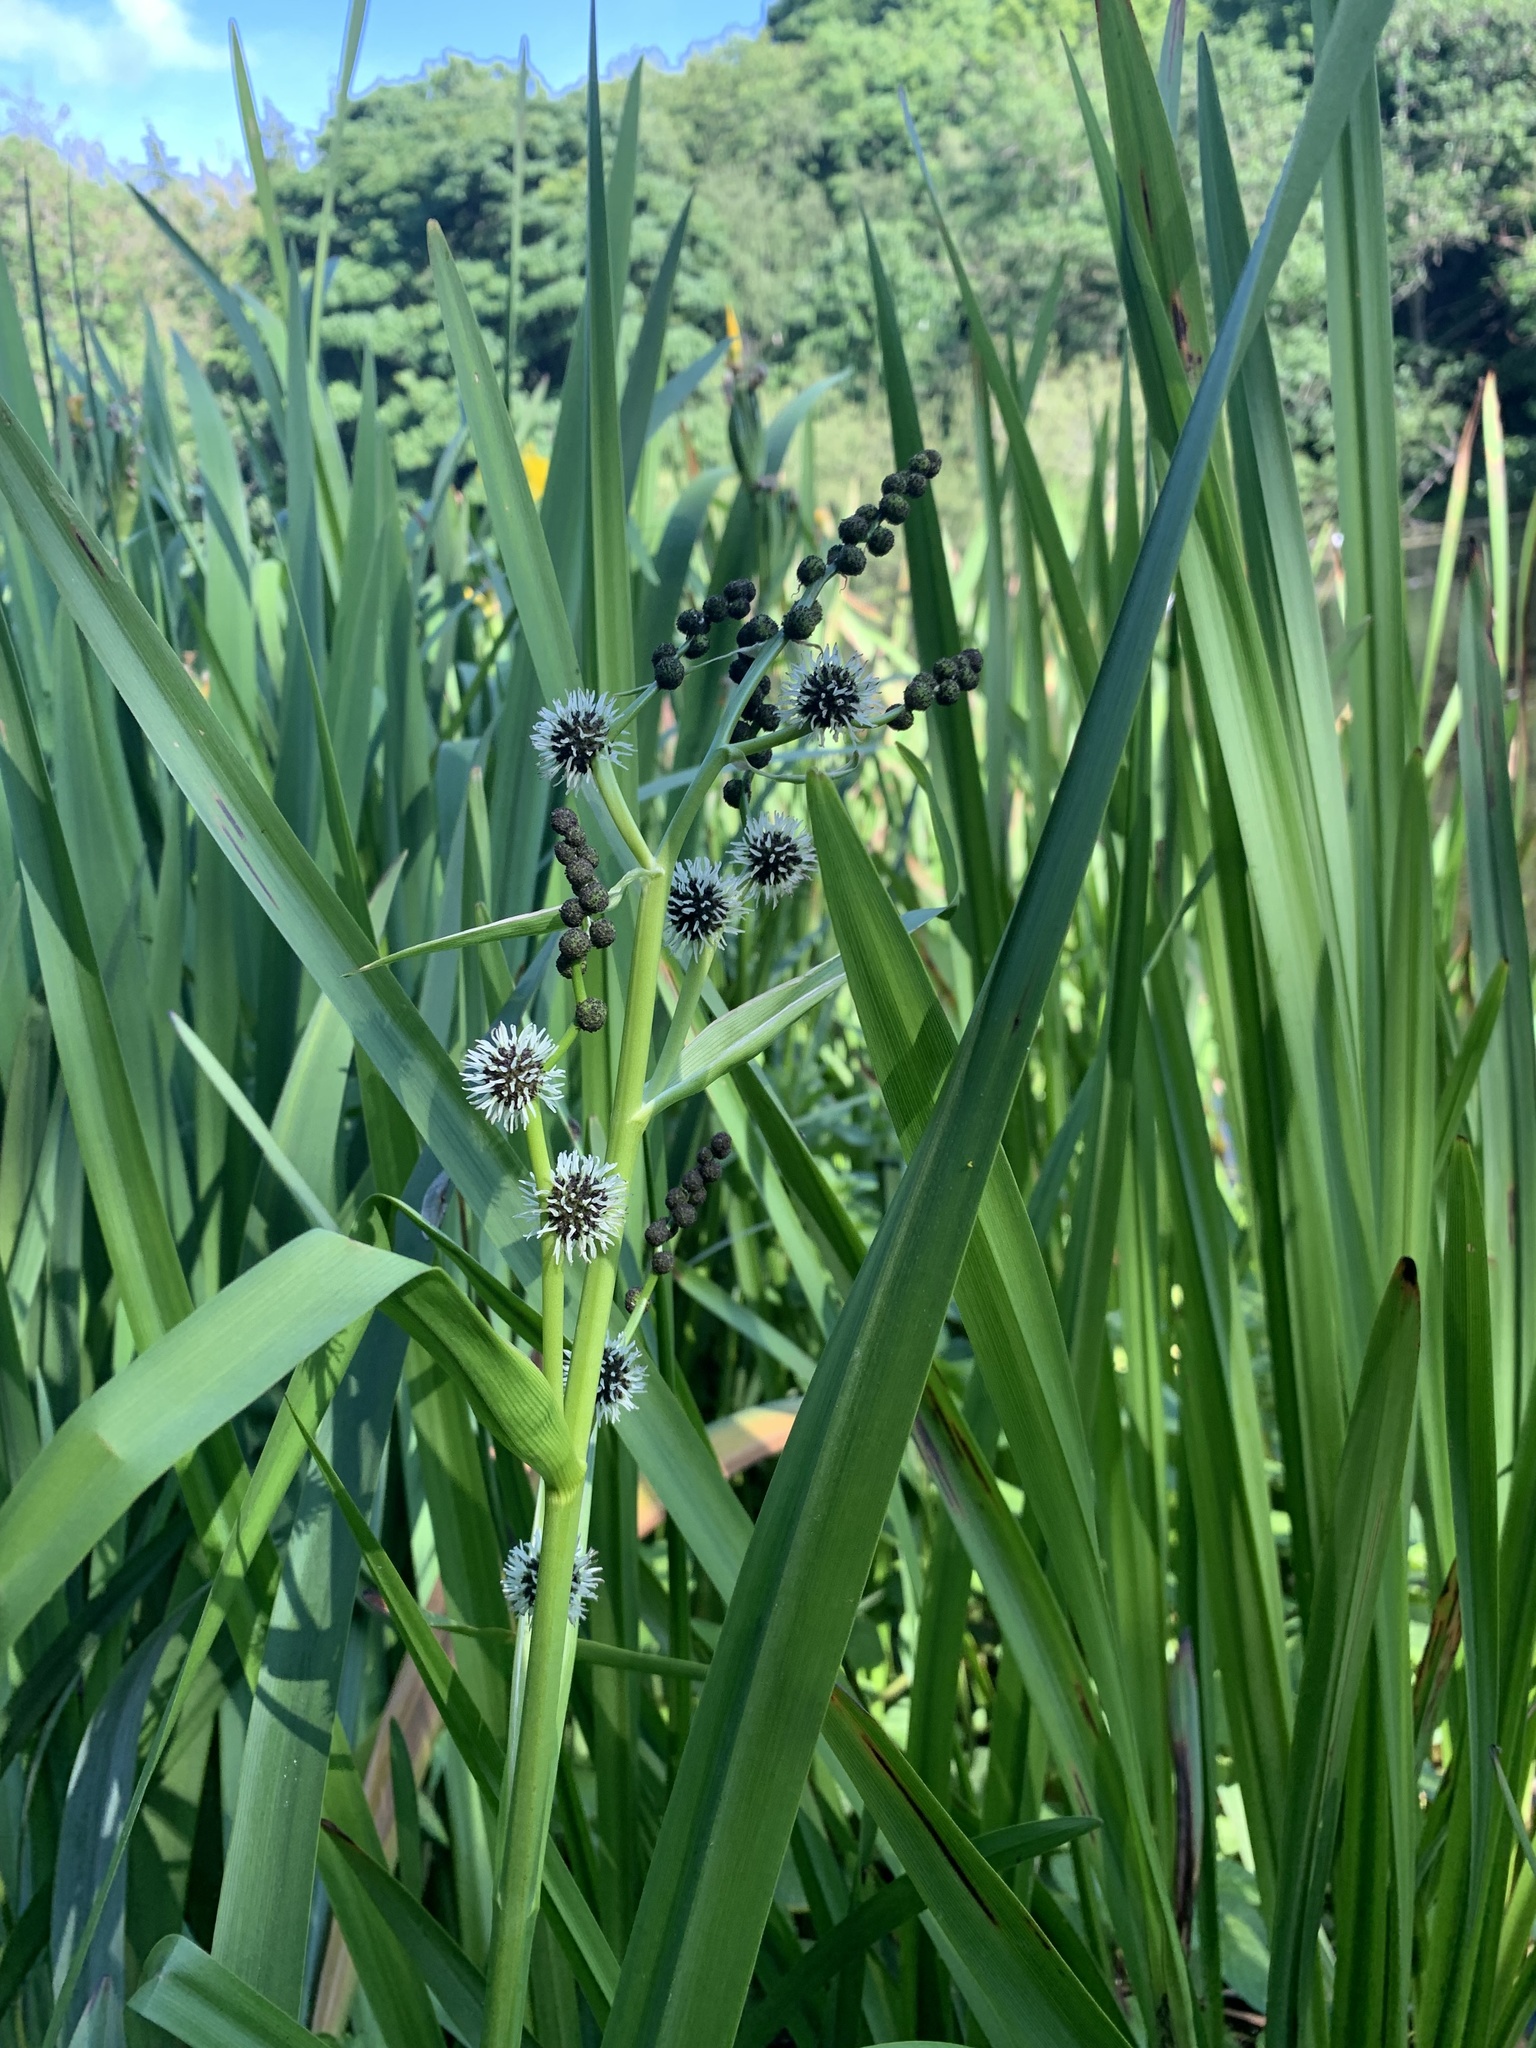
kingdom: Plantae
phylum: Tracheophyta
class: Liliopsida
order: Poales
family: Typhaceae
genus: Sparganium
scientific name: Sparganium erectum
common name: Branched bur-reed
